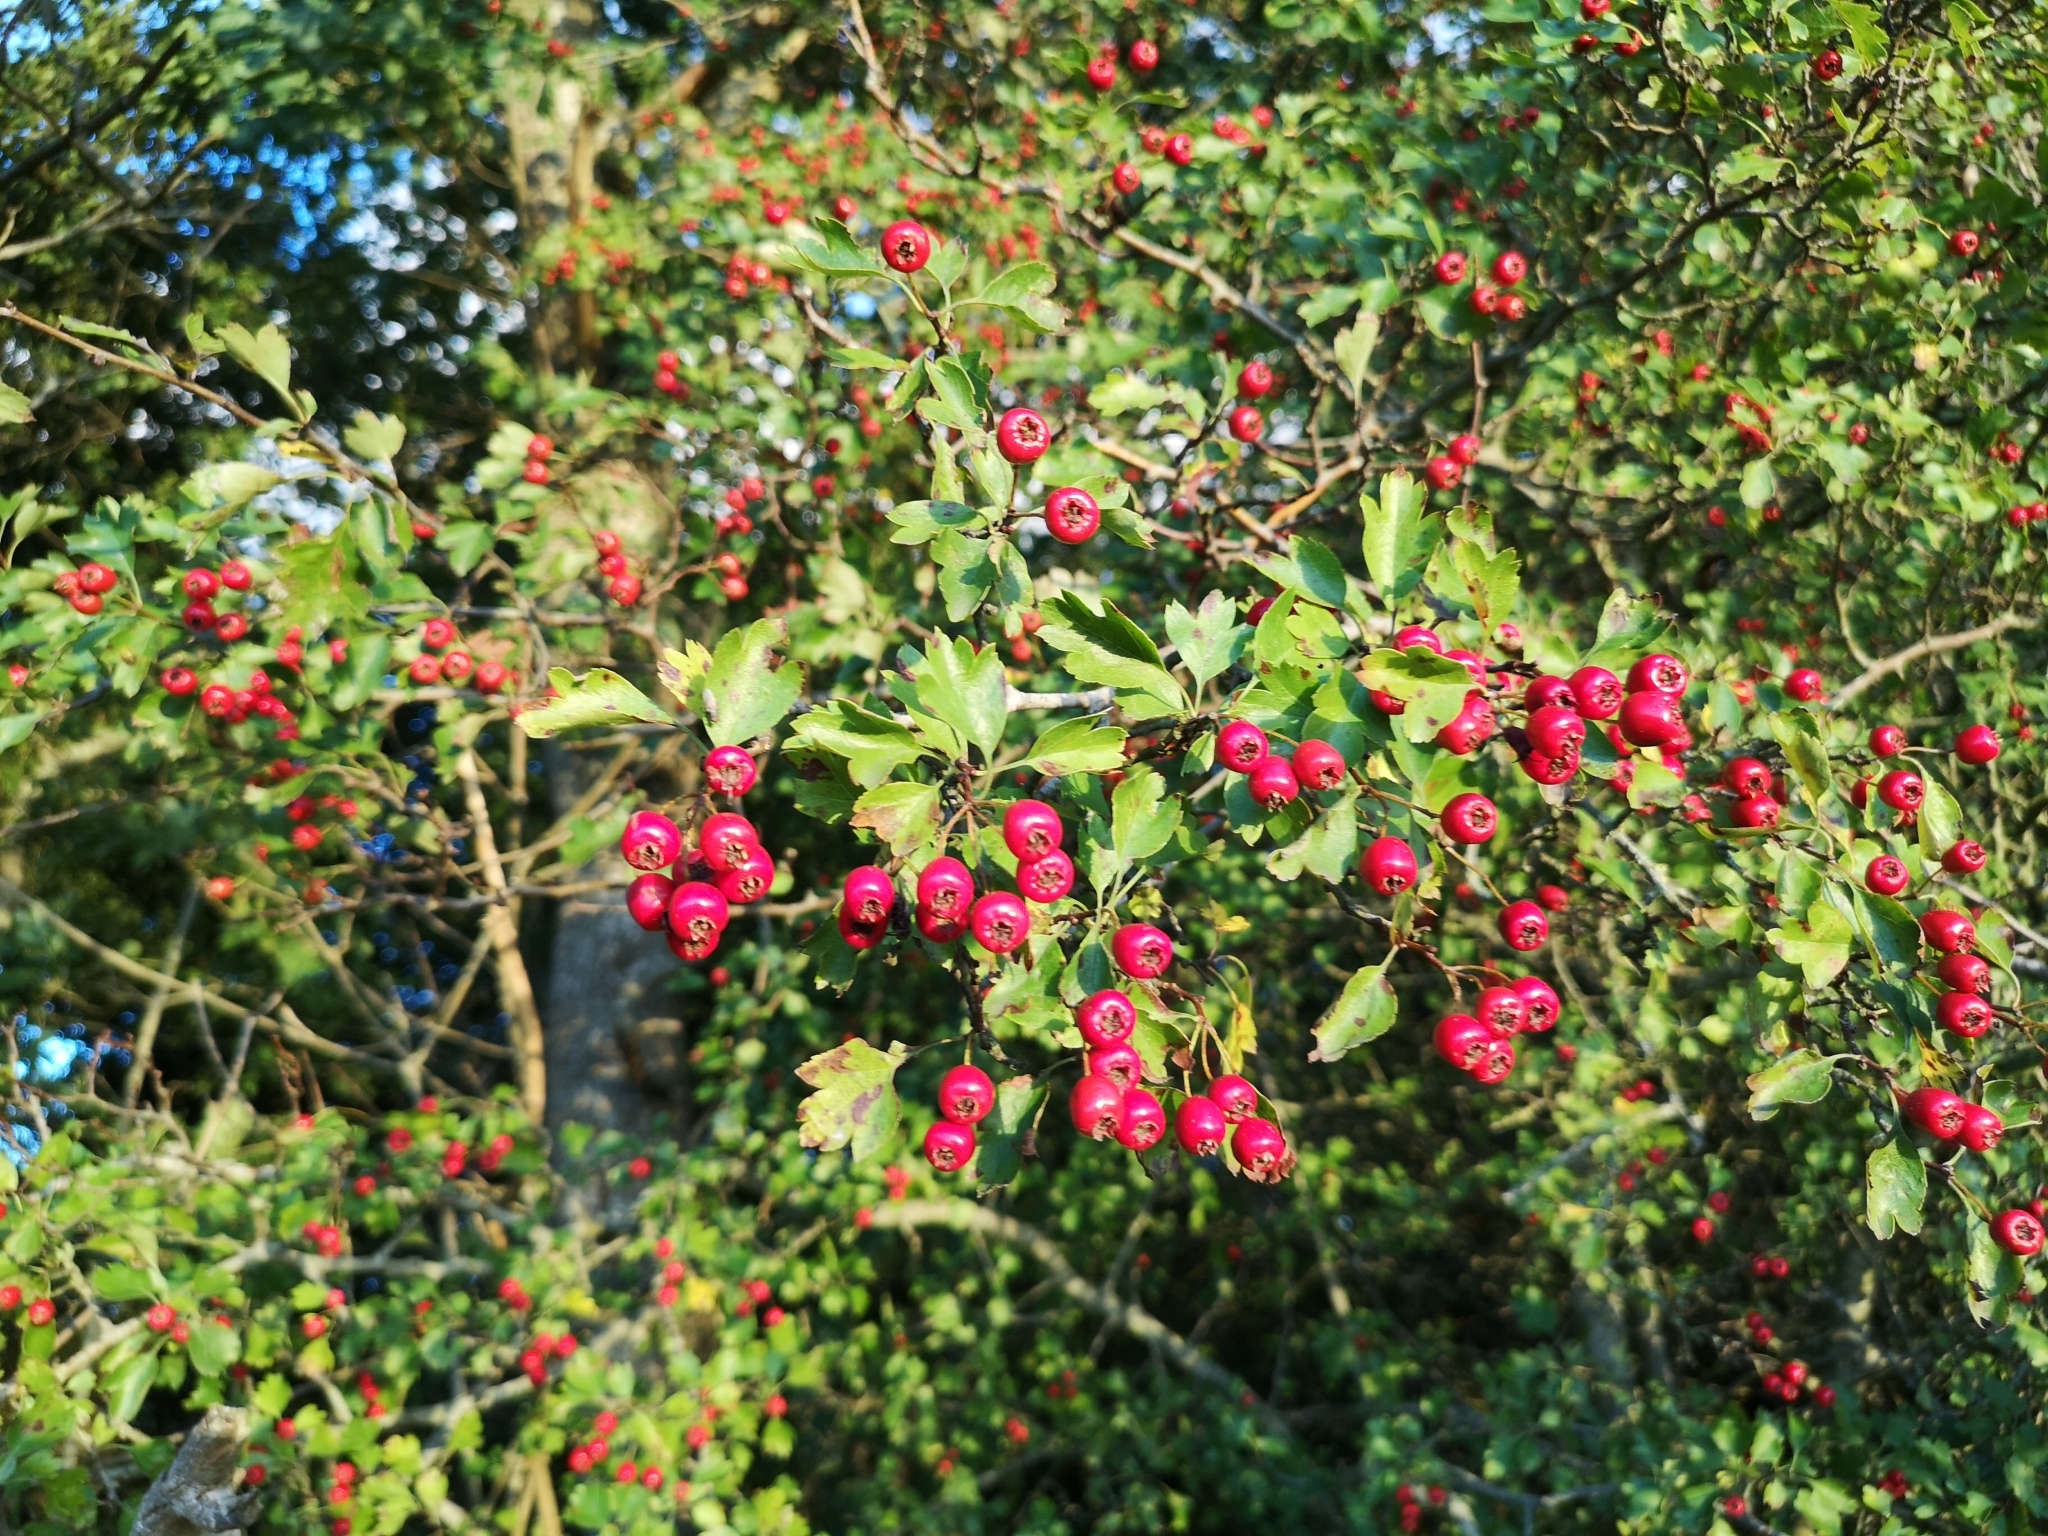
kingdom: Plantae
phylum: Tracheophyta
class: Magnoliopsida
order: Rosales
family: Rosaceae
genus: Crataegus
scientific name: Crataegus laevigata
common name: Midland hawthorn
